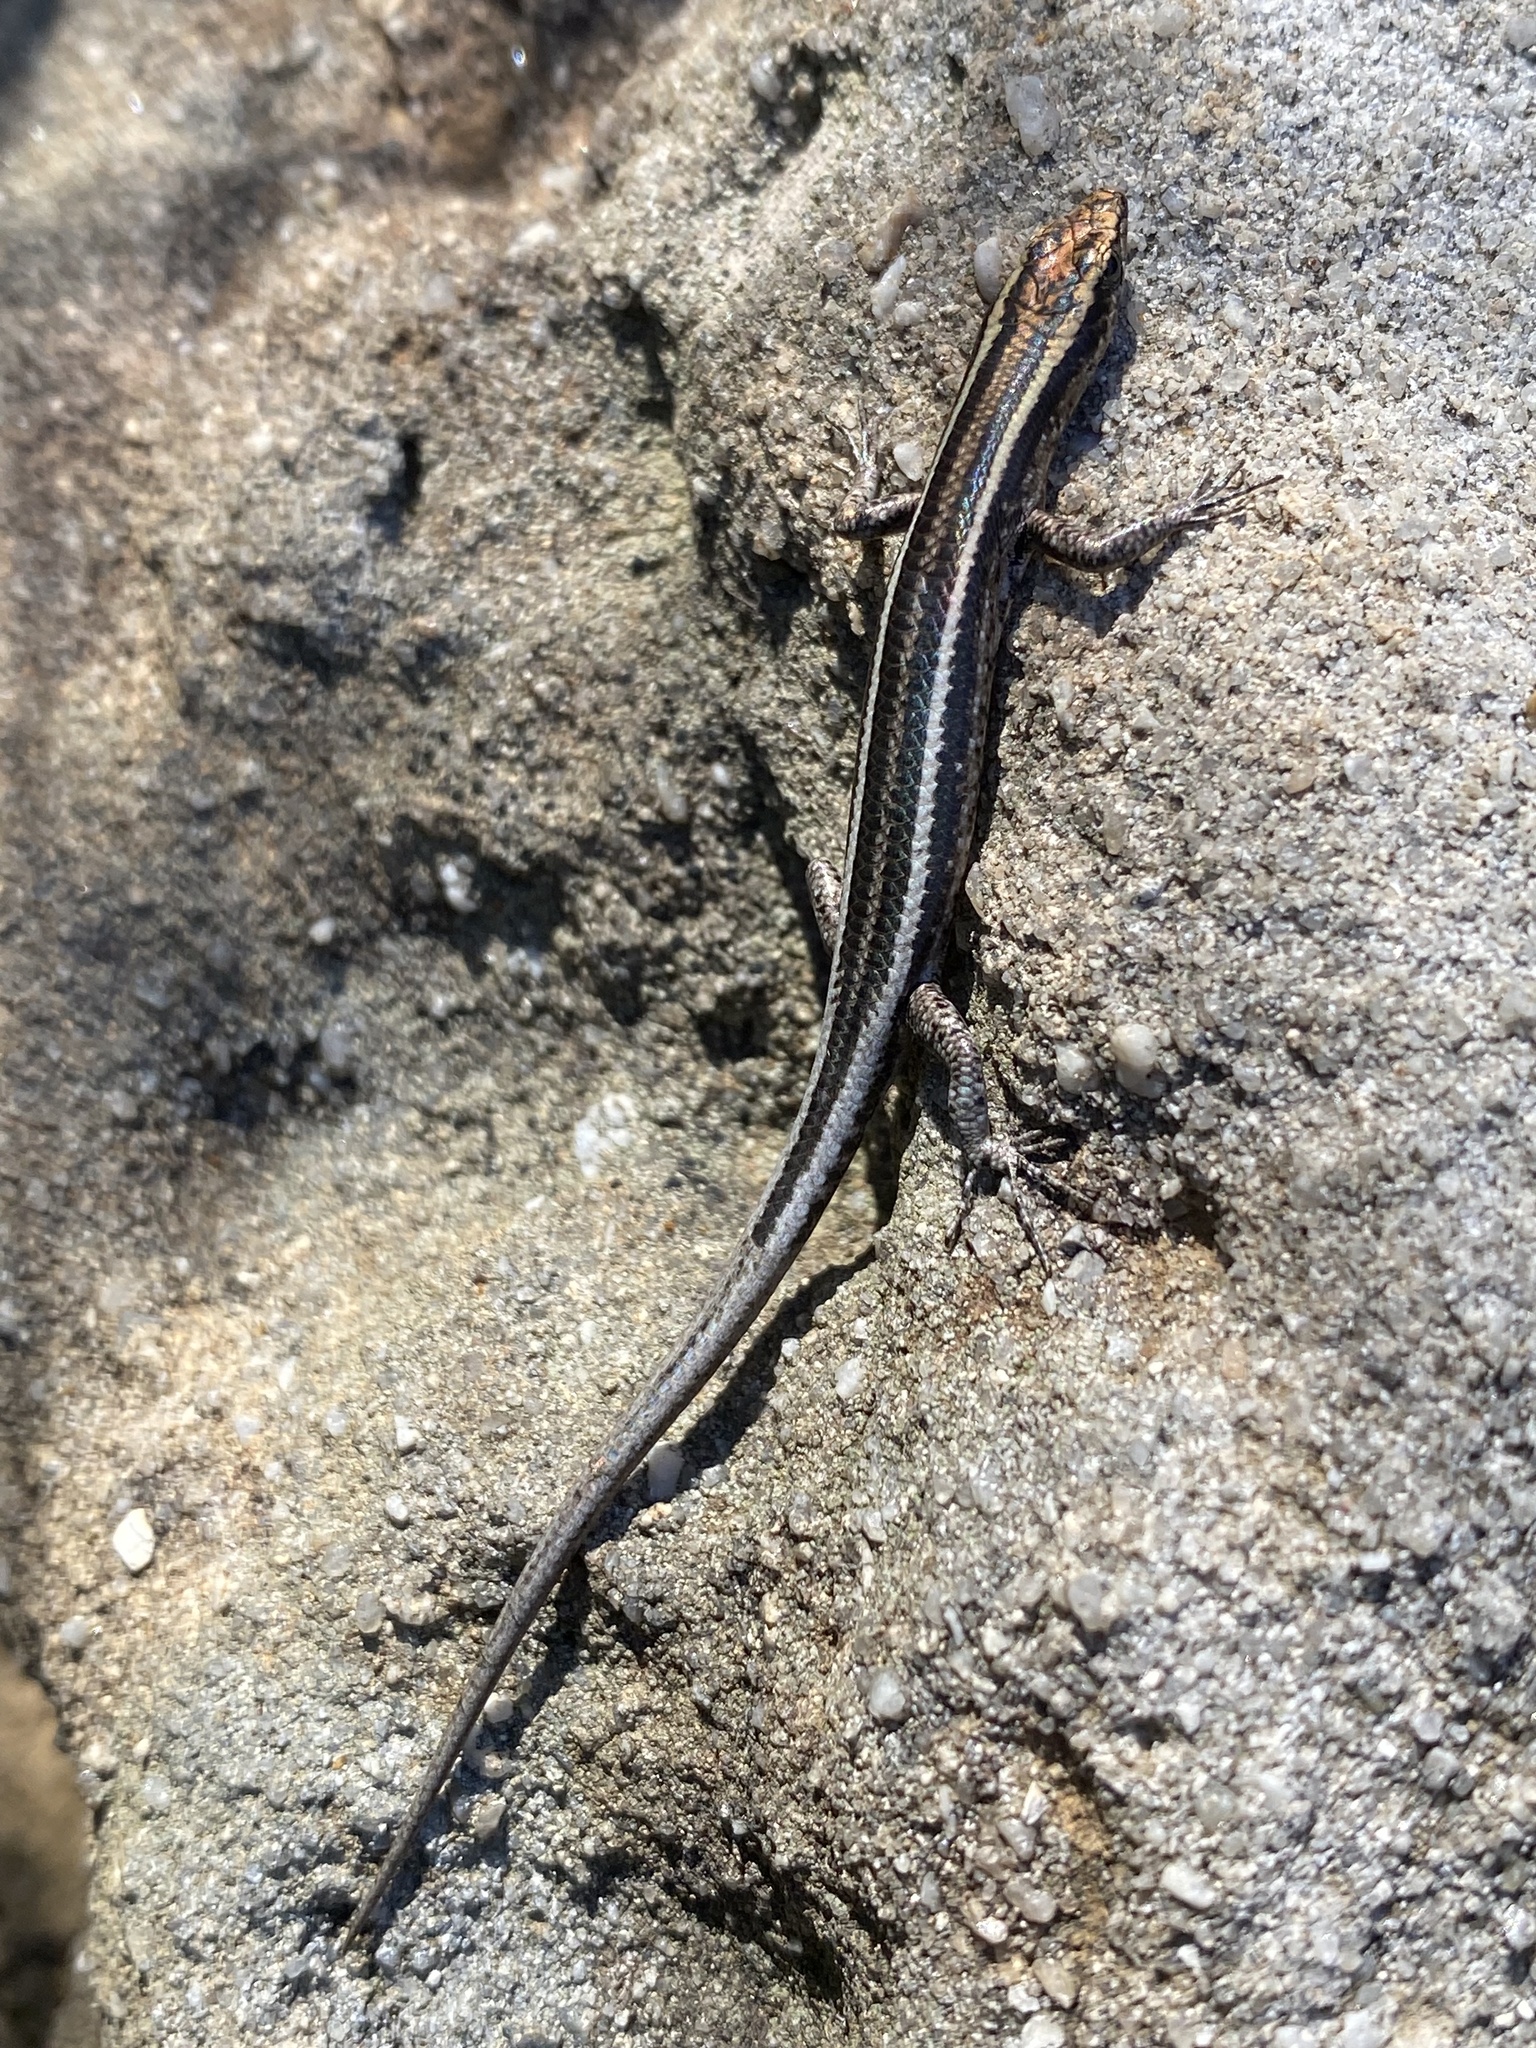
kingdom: Animalia
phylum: Chordata
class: Squamata
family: Scincidae
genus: Cryptoblepharus
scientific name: Cryptoblepharus pulcher
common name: Elegant snake-eyed skink
